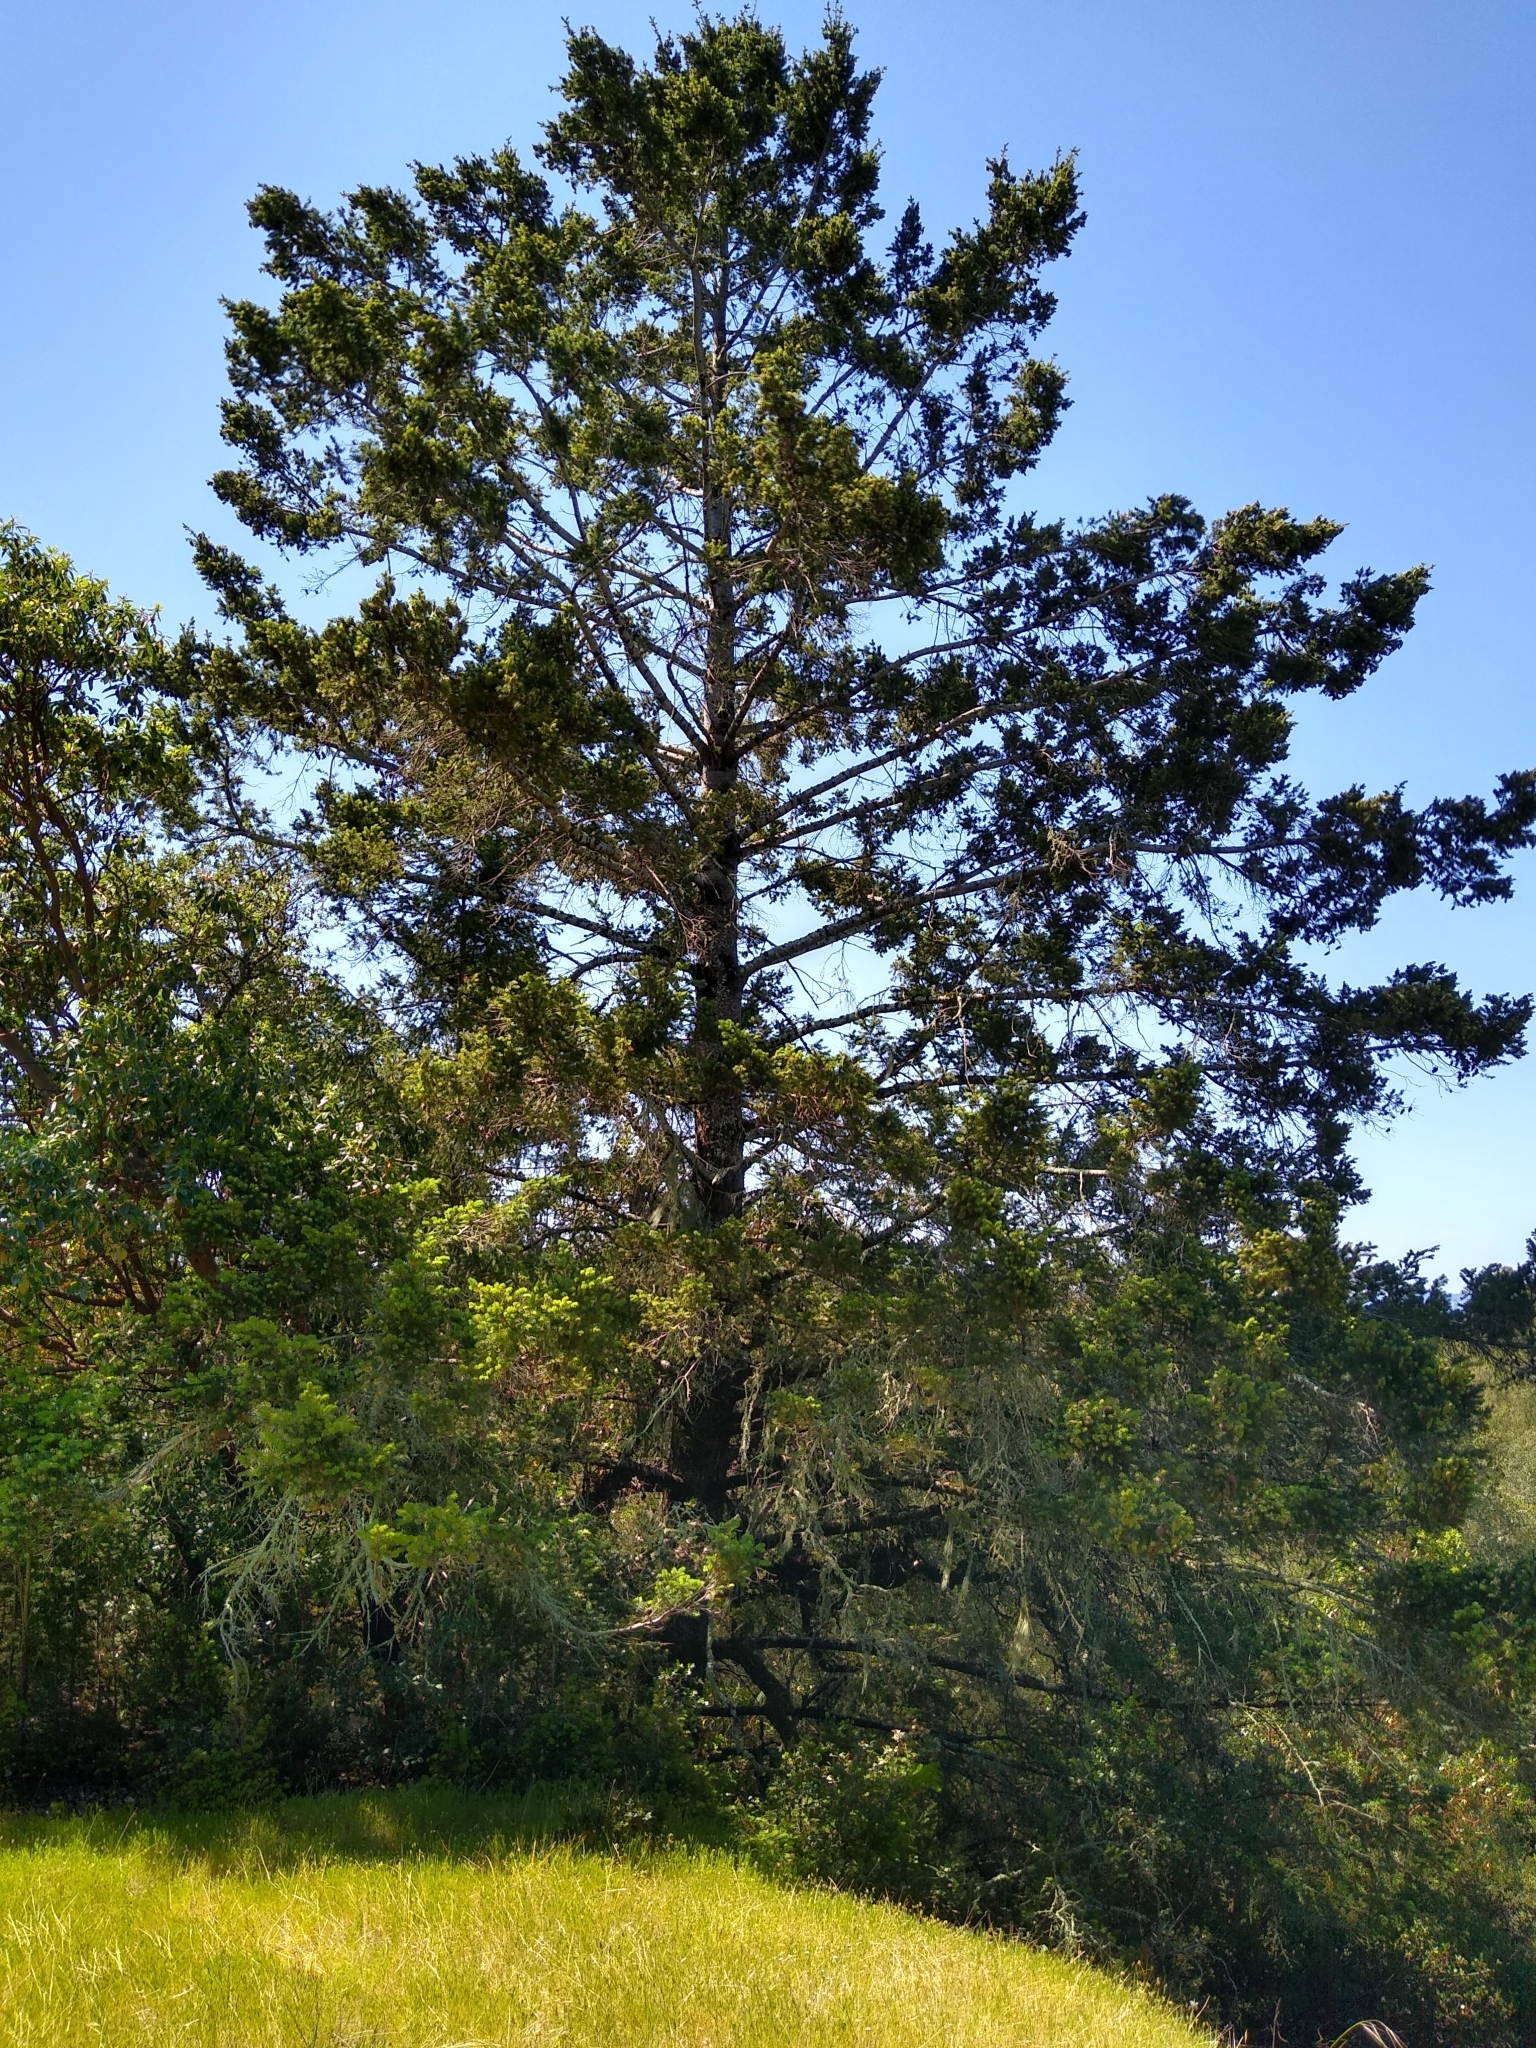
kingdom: Plantae
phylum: Tracheophyta
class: Pinopsida
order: Pinales
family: Pinaceae
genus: Pseudotsuga
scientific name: Pseudotsuga menziesii
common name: Douglas fir
